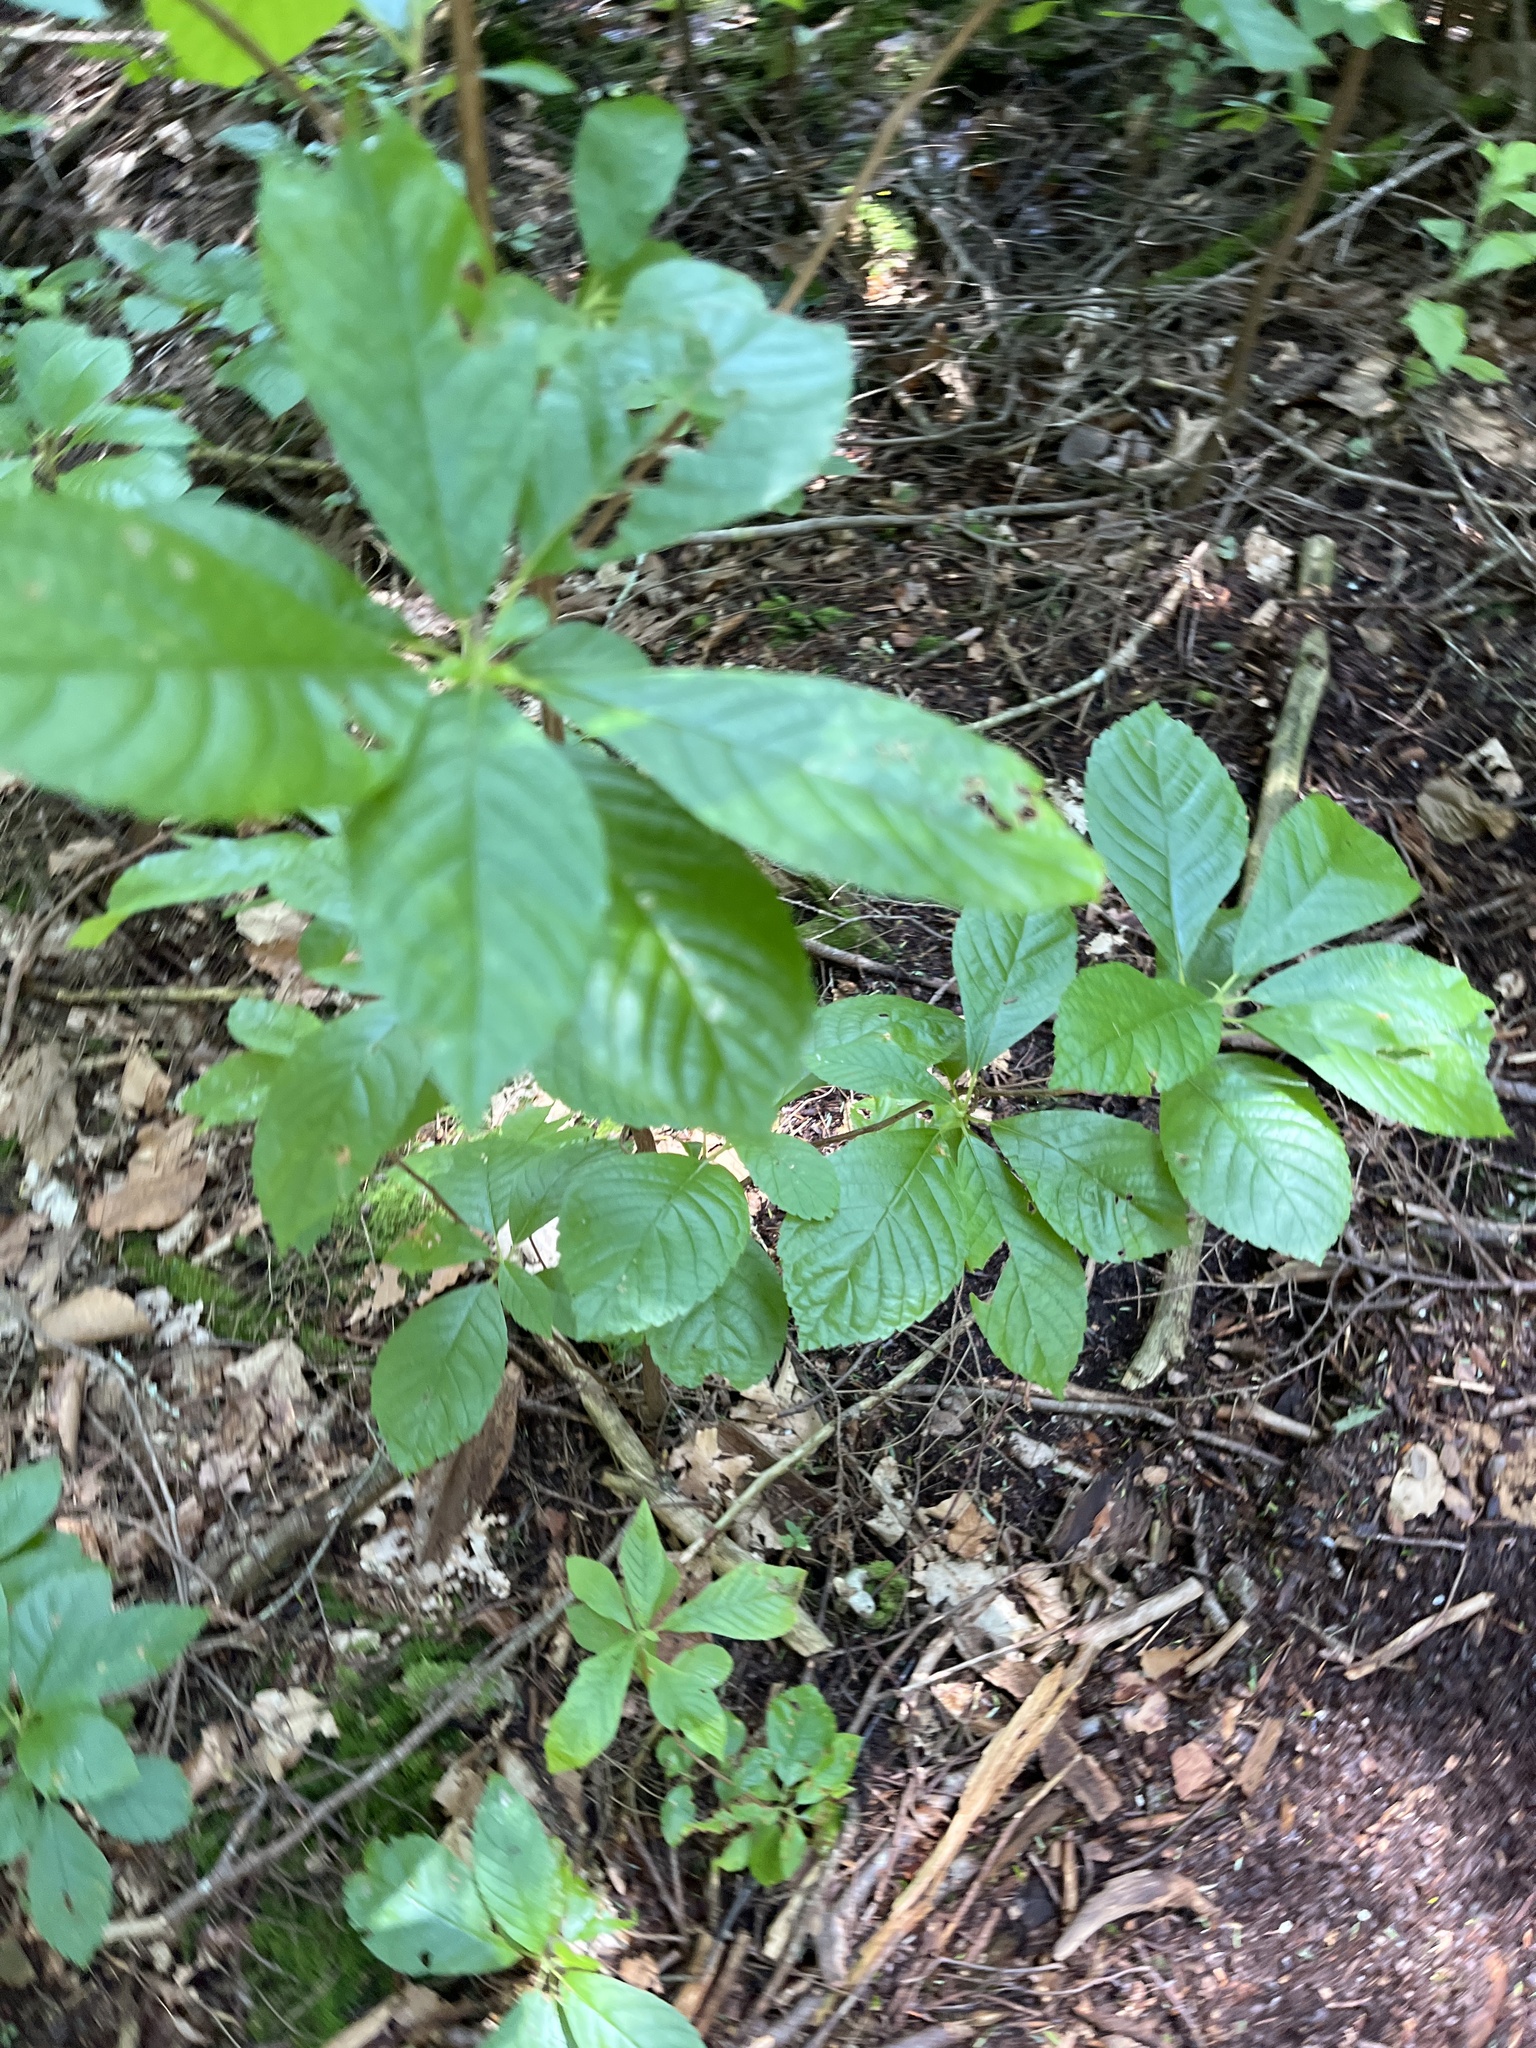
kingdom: Plantae
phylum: Tracheophyta
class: Magnoliopsida
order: Ericales
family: Clethraceae
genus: Clethra
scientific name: Clethra alnifolia
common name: Sweet pepperbush
